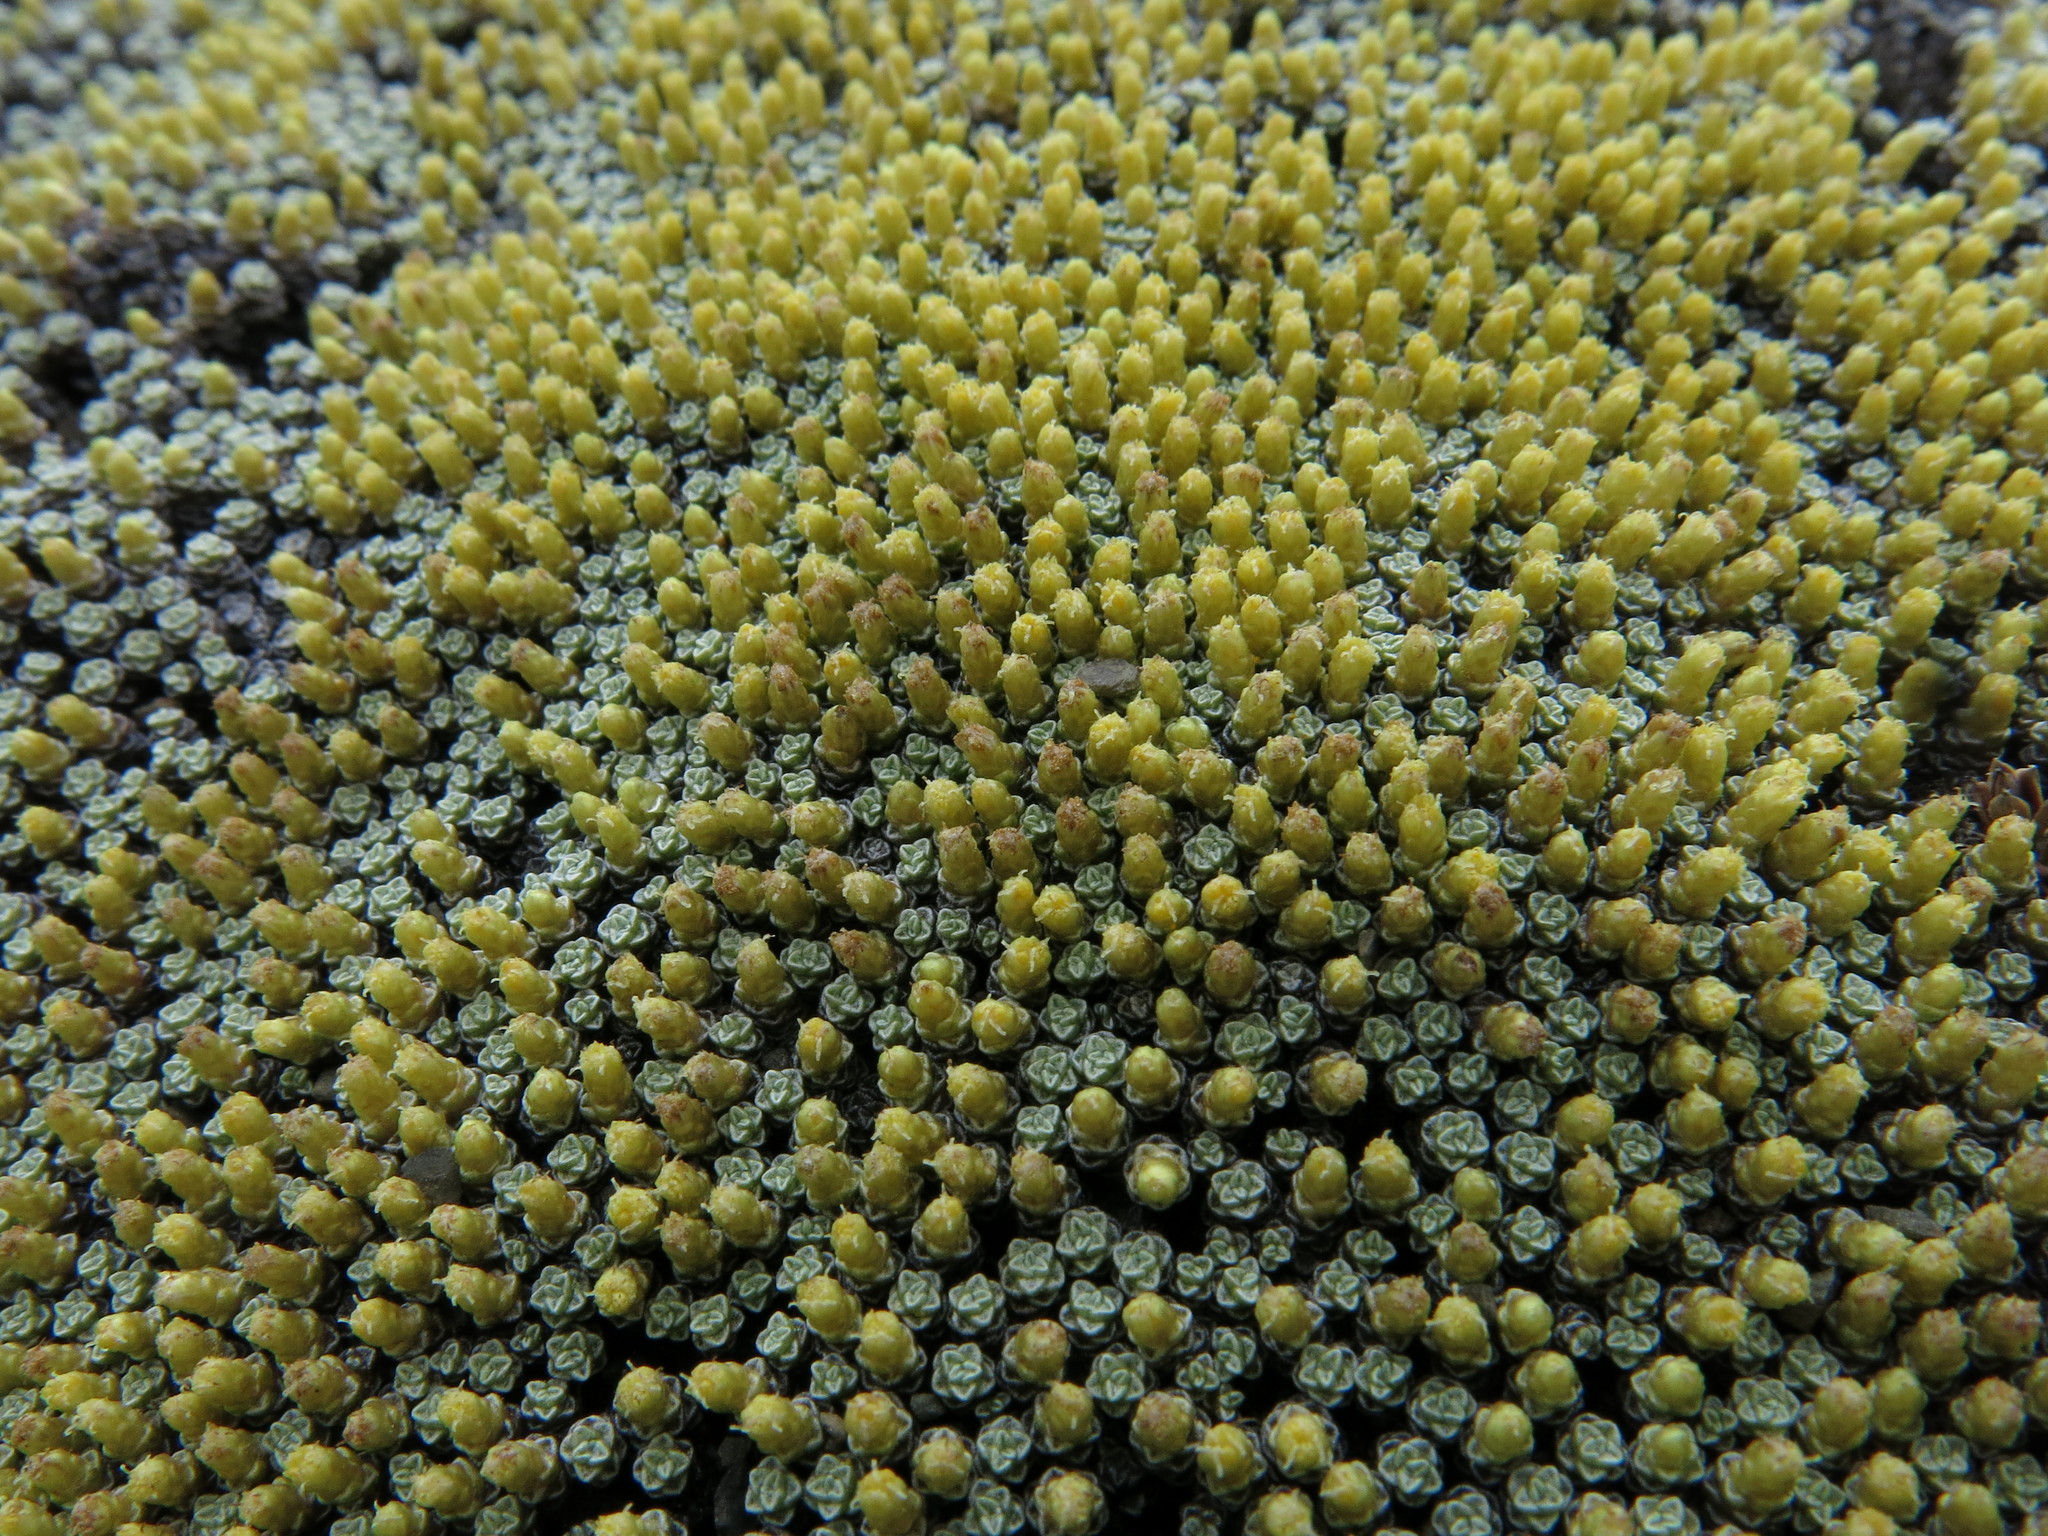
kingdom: Plantae
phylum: Tracheophyta
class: Magnoliopsida
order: Asterales
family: Asteraceae
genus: Raoulia
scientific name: Raoulia australis
